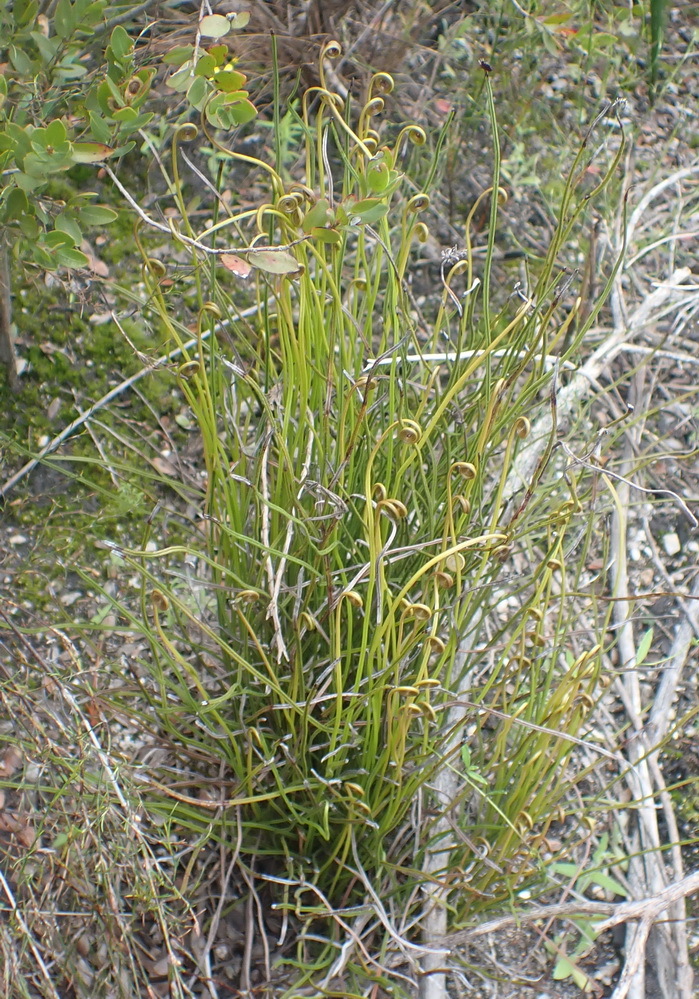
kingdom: Plantae
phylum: Tracheophyta
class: Polypodiopsida
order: Schizaeales
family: Schizaeaceae
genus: Schizaea
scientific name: Schizaea pectinata
